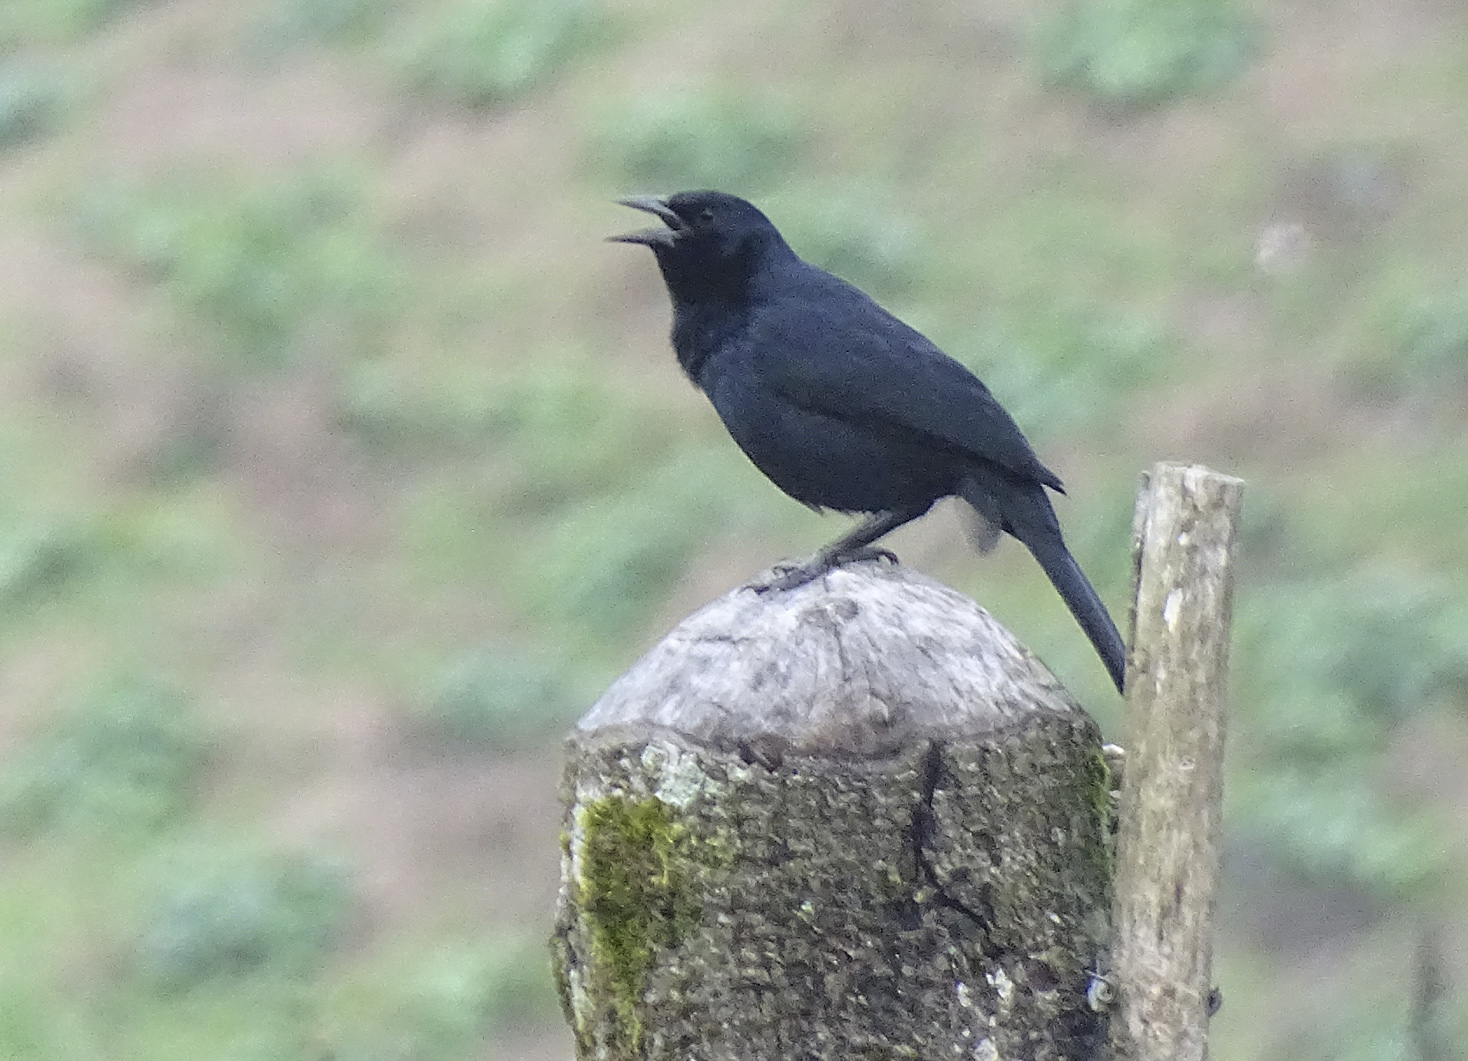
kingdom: Animalia
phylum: Chordata
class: Aves
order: Passeriformes
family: Icteridae
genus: Dives
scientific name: Dives dives
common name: Melodious blackbird
